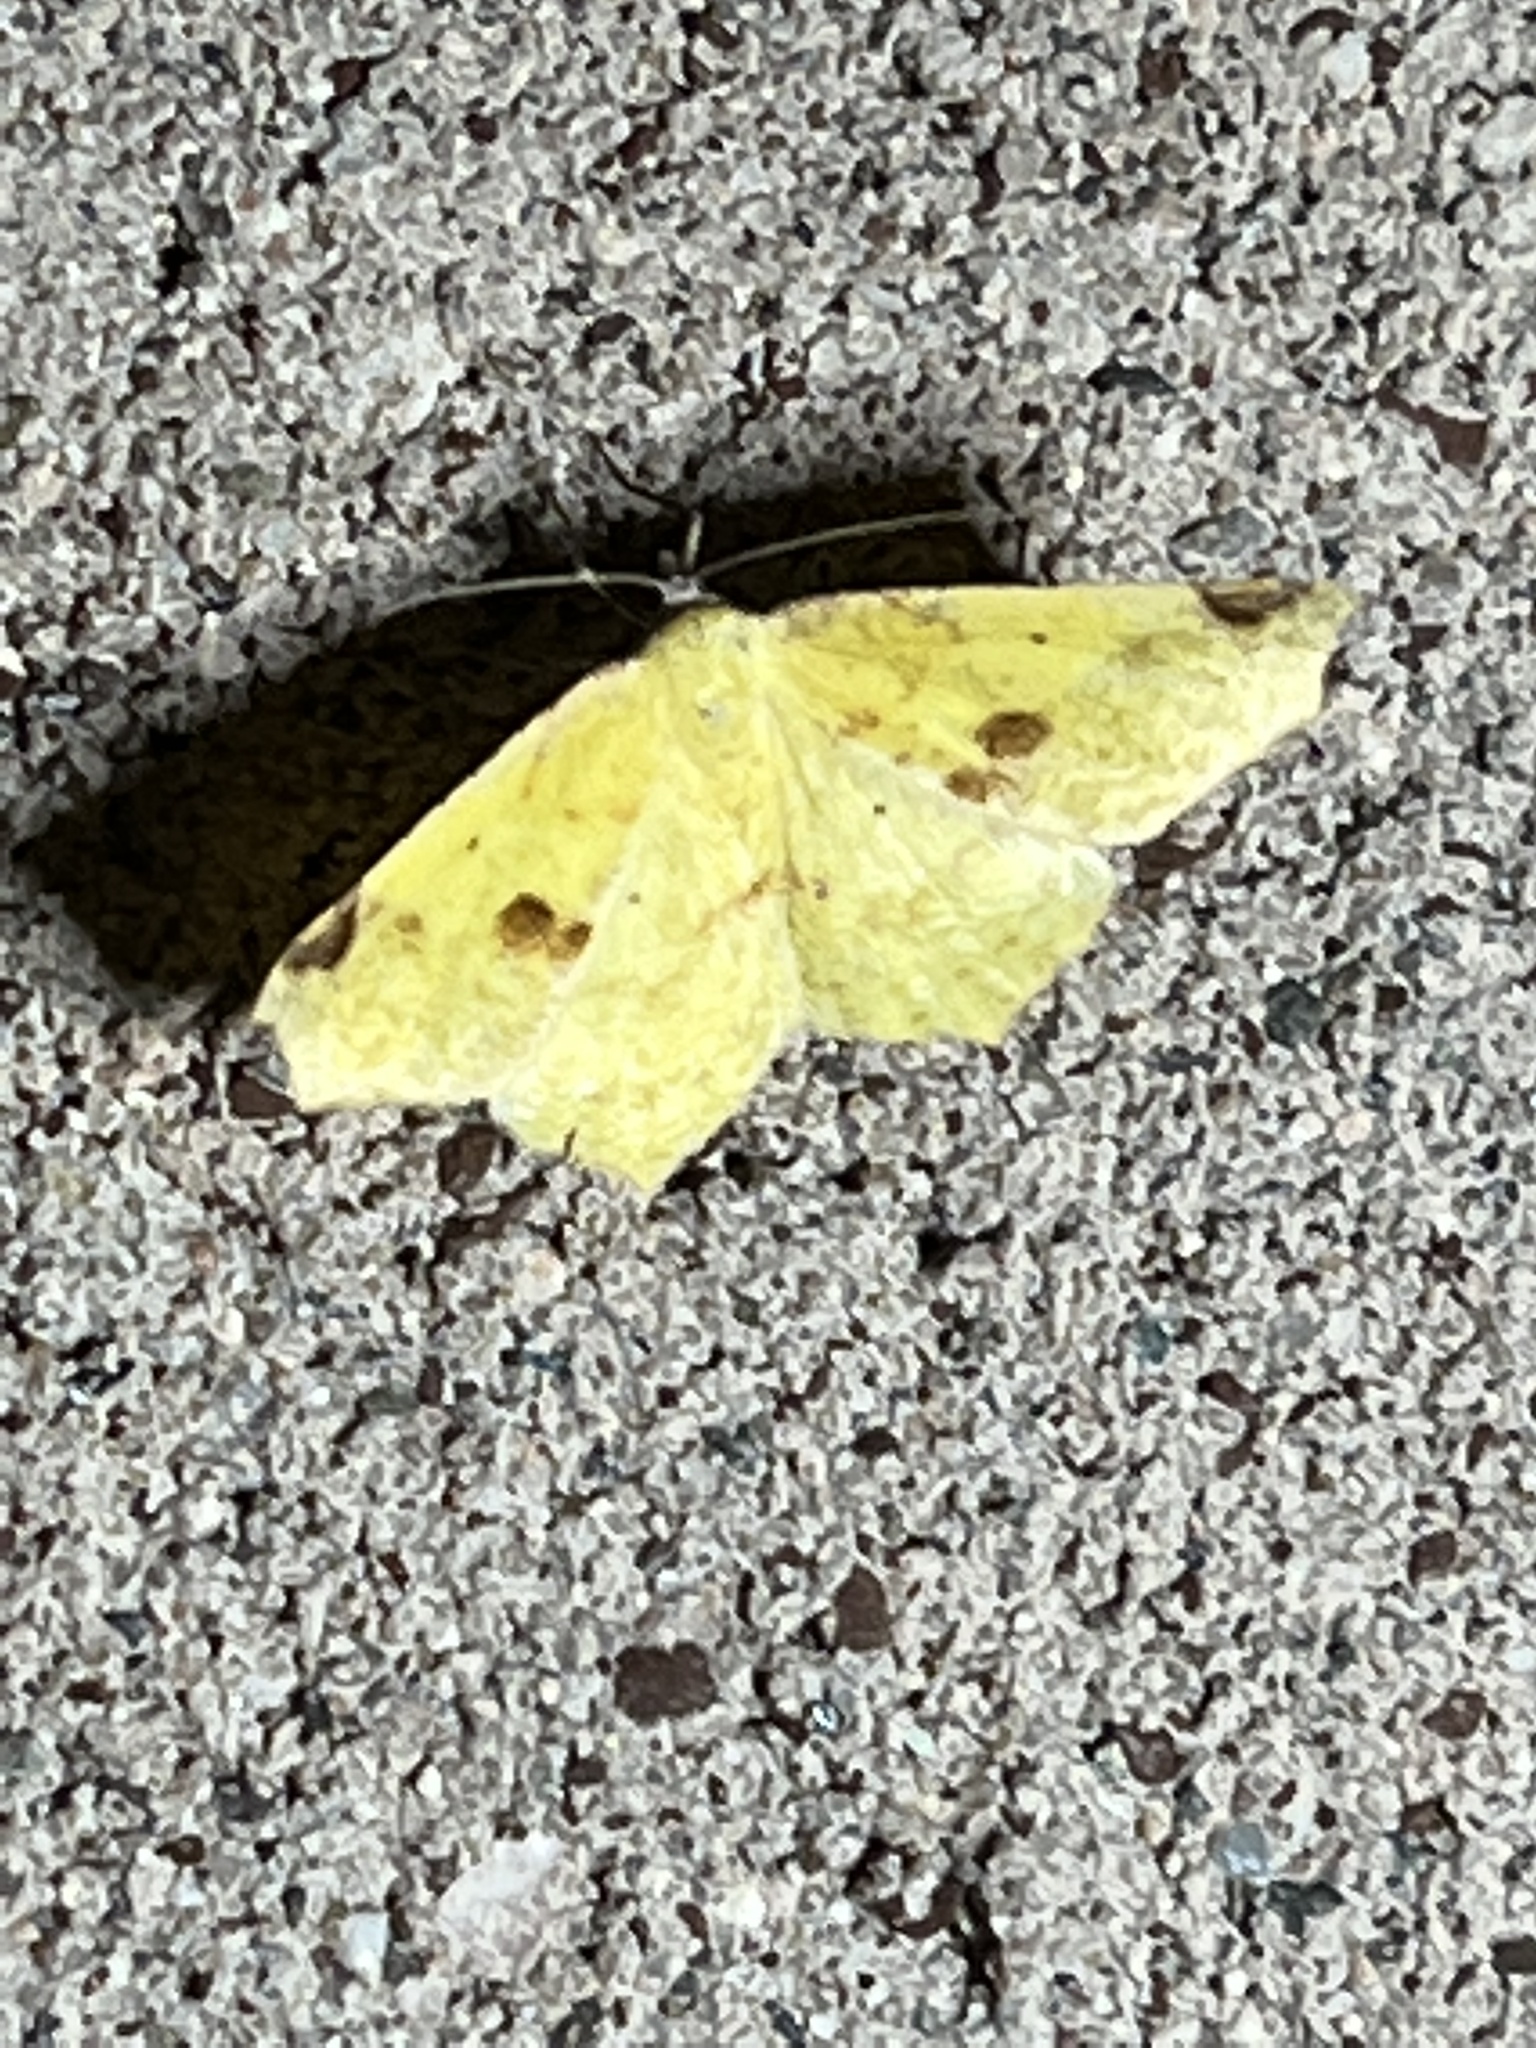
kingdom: Animalia
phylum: Arthropoda
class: Insecta
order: Lepidoptera
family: Geometridae
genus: Antepione
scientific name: Antepione thisoaria
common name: Variable antipione
